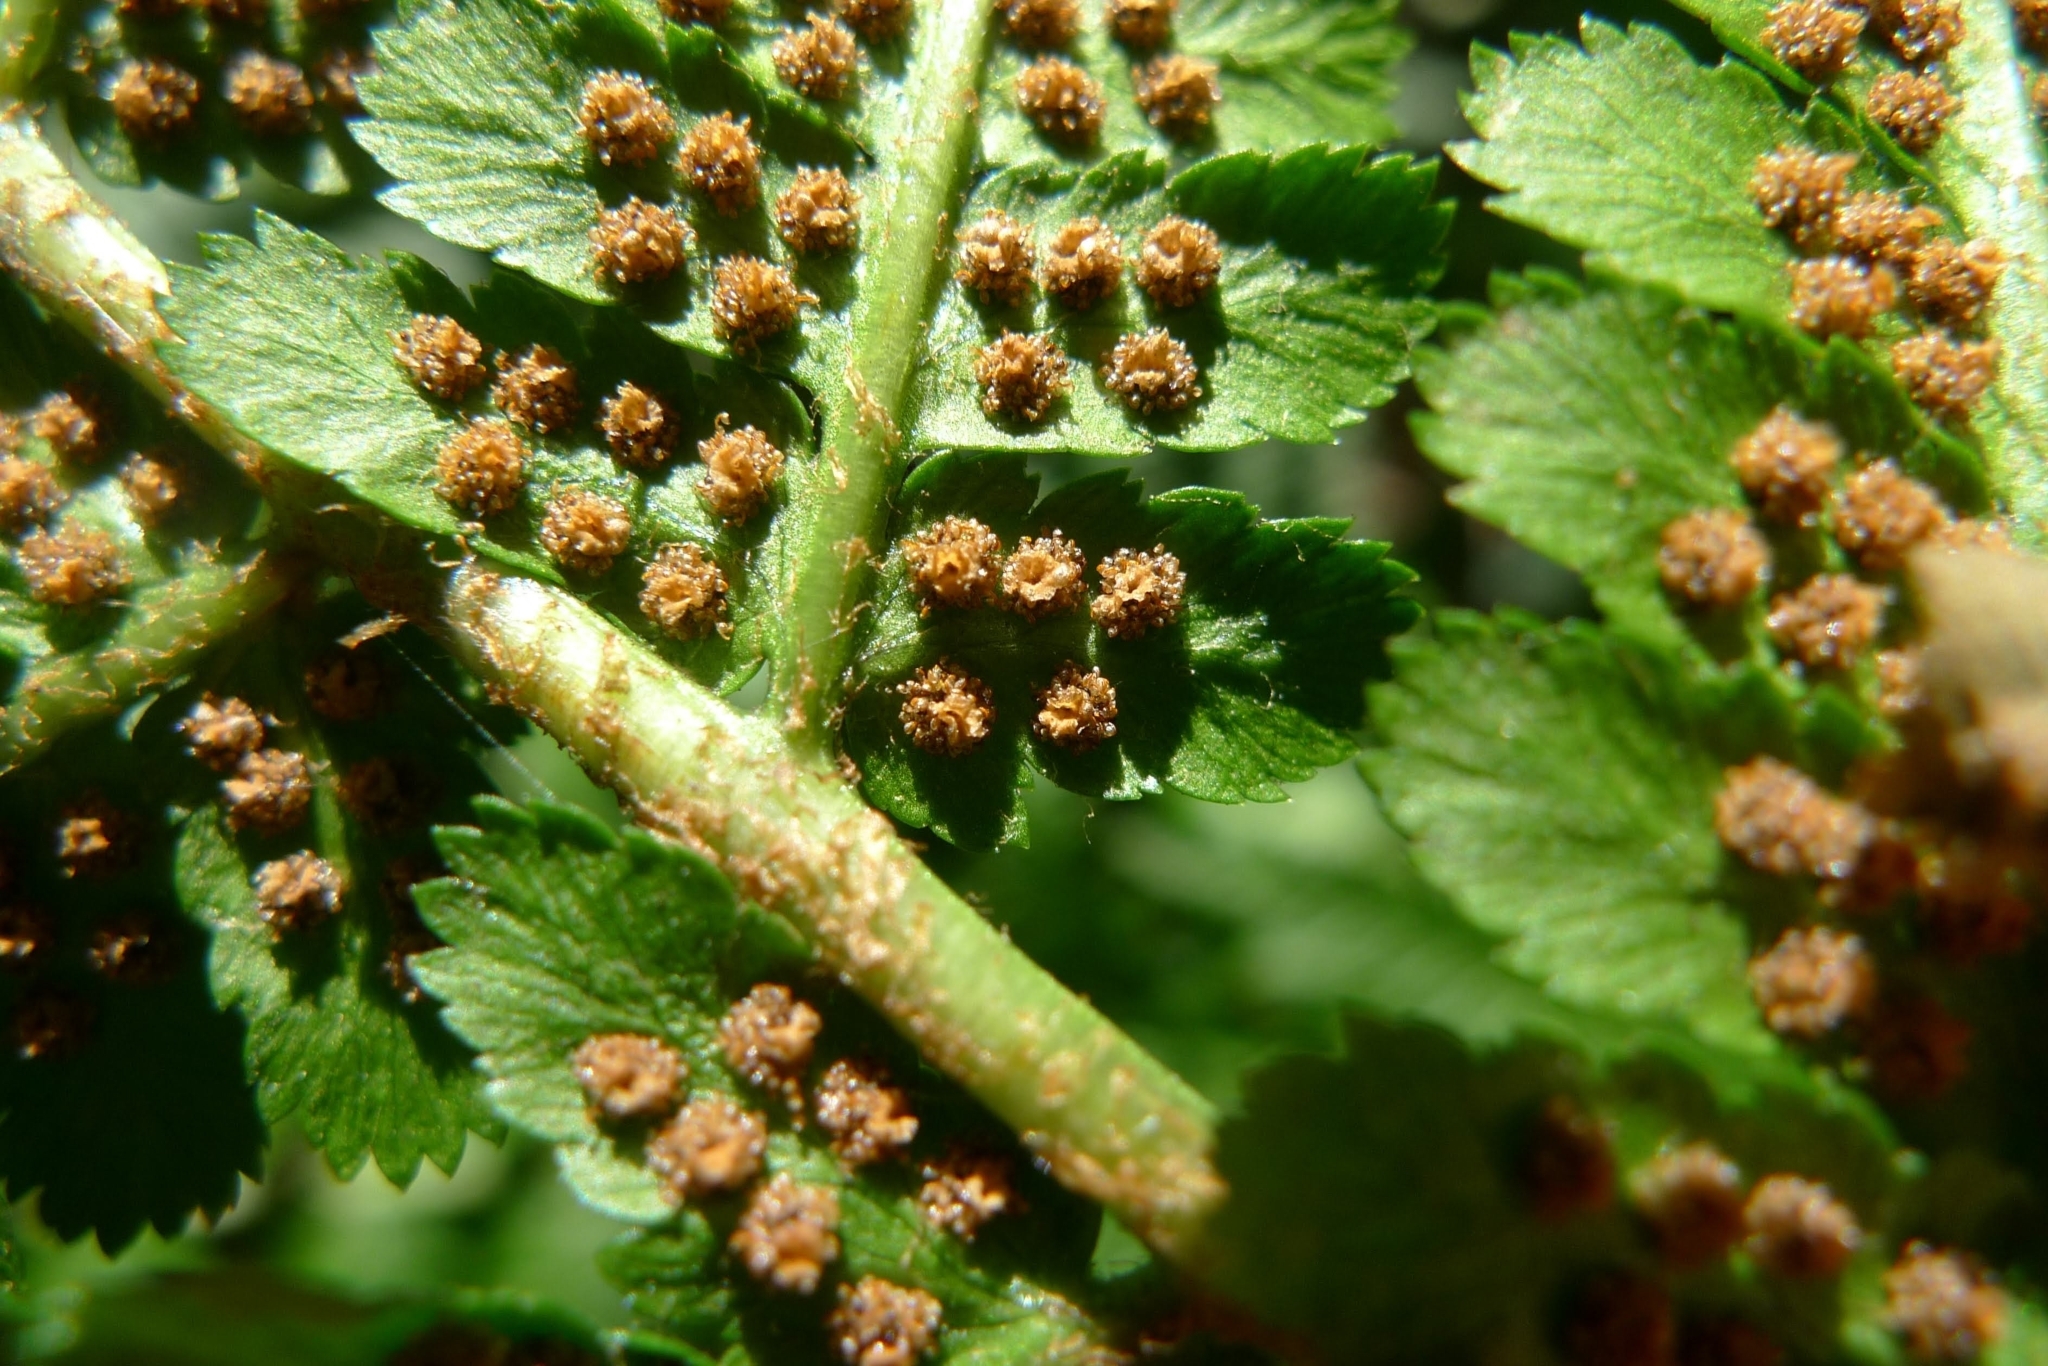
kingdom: Plantae
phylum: Tracheophyta
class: Polypodiopsida
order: Polypodiales
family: Dryopteridaceae
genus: Dryopteris
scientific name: Dryopteris filix-mas
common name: Male fern
